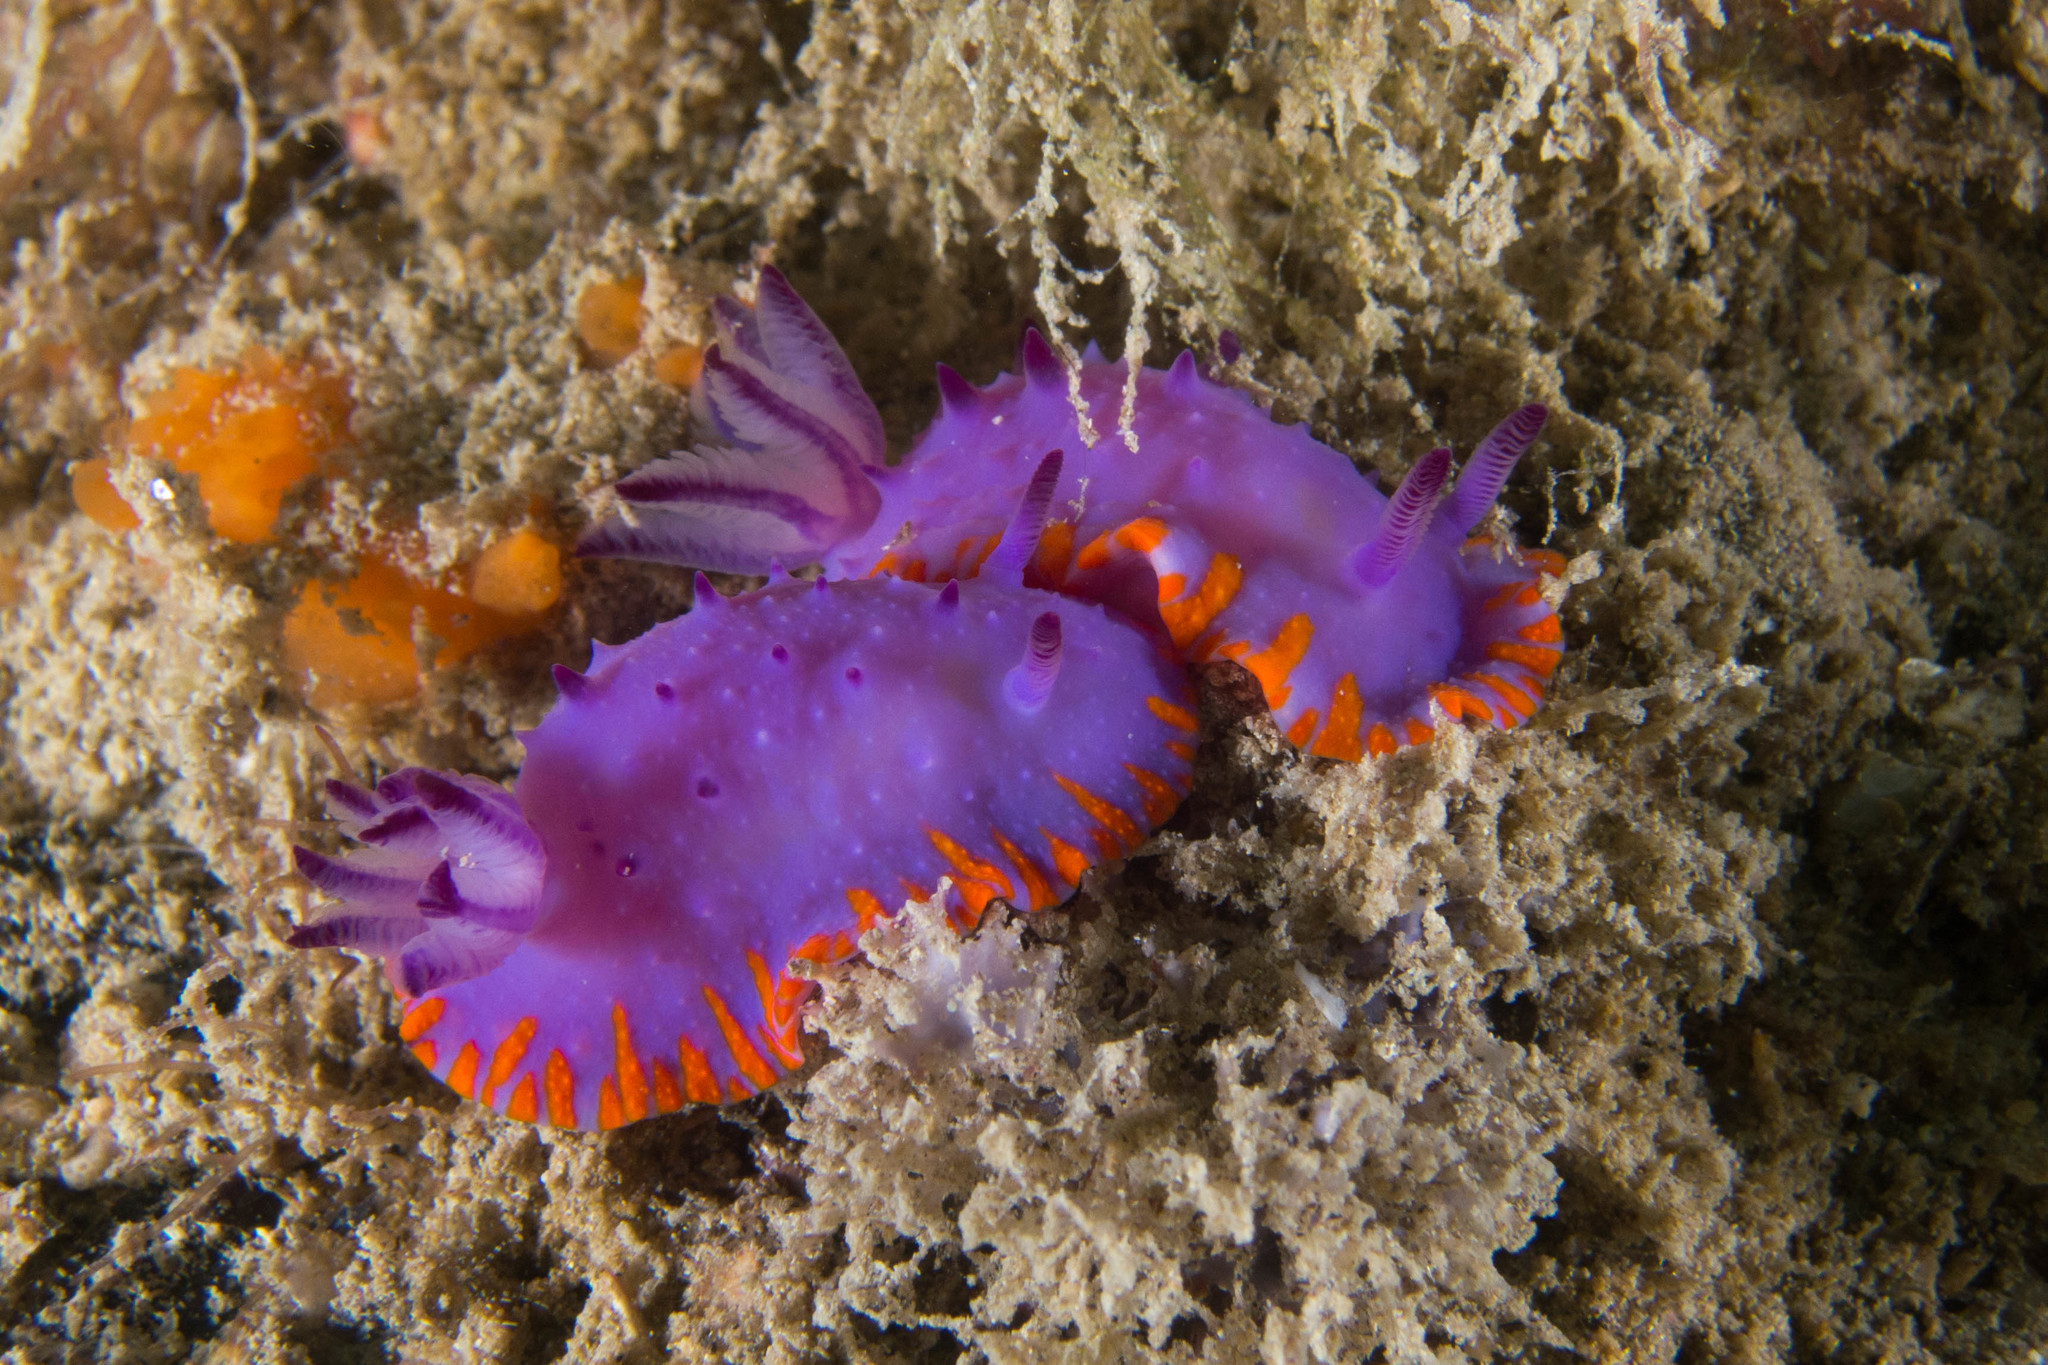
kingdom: Animalia
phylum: Mollusca
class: Gastropoda
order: Nudibranchia
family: Chromodorididae
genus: Mexichromis
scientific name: Mexichromis macropus
